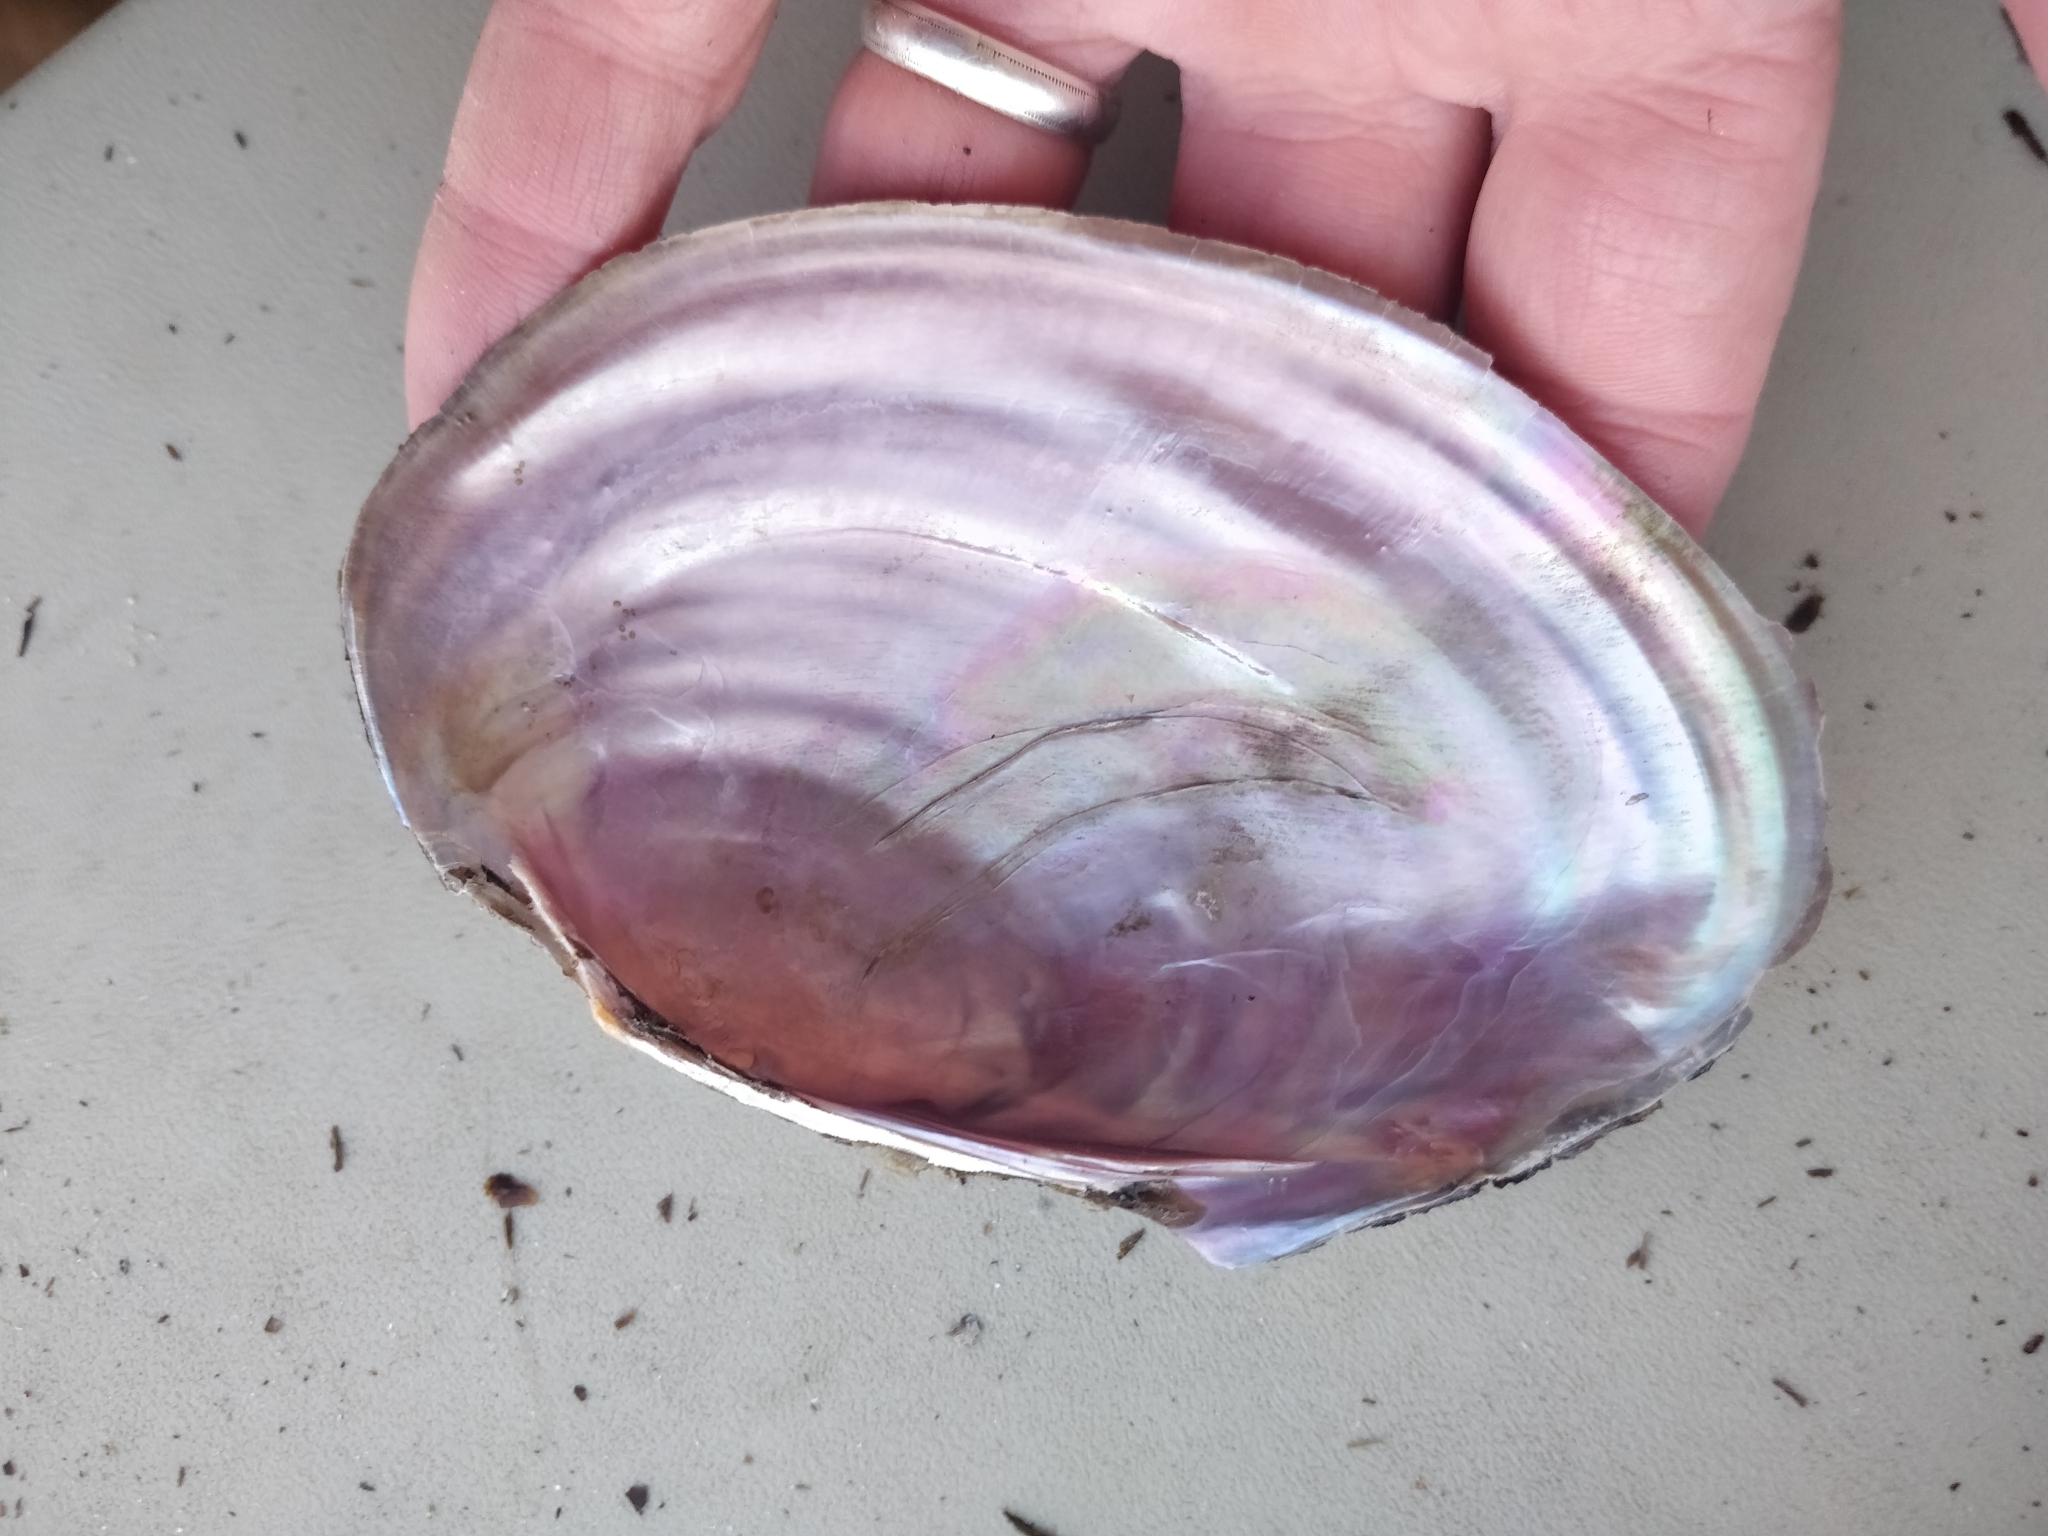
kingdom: Animalia
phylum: Mollusca
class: Bivalvia
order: Unionida
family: Unionidae
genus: Potamilus
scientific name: Potamilus ohiensis
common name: Pink papershell
